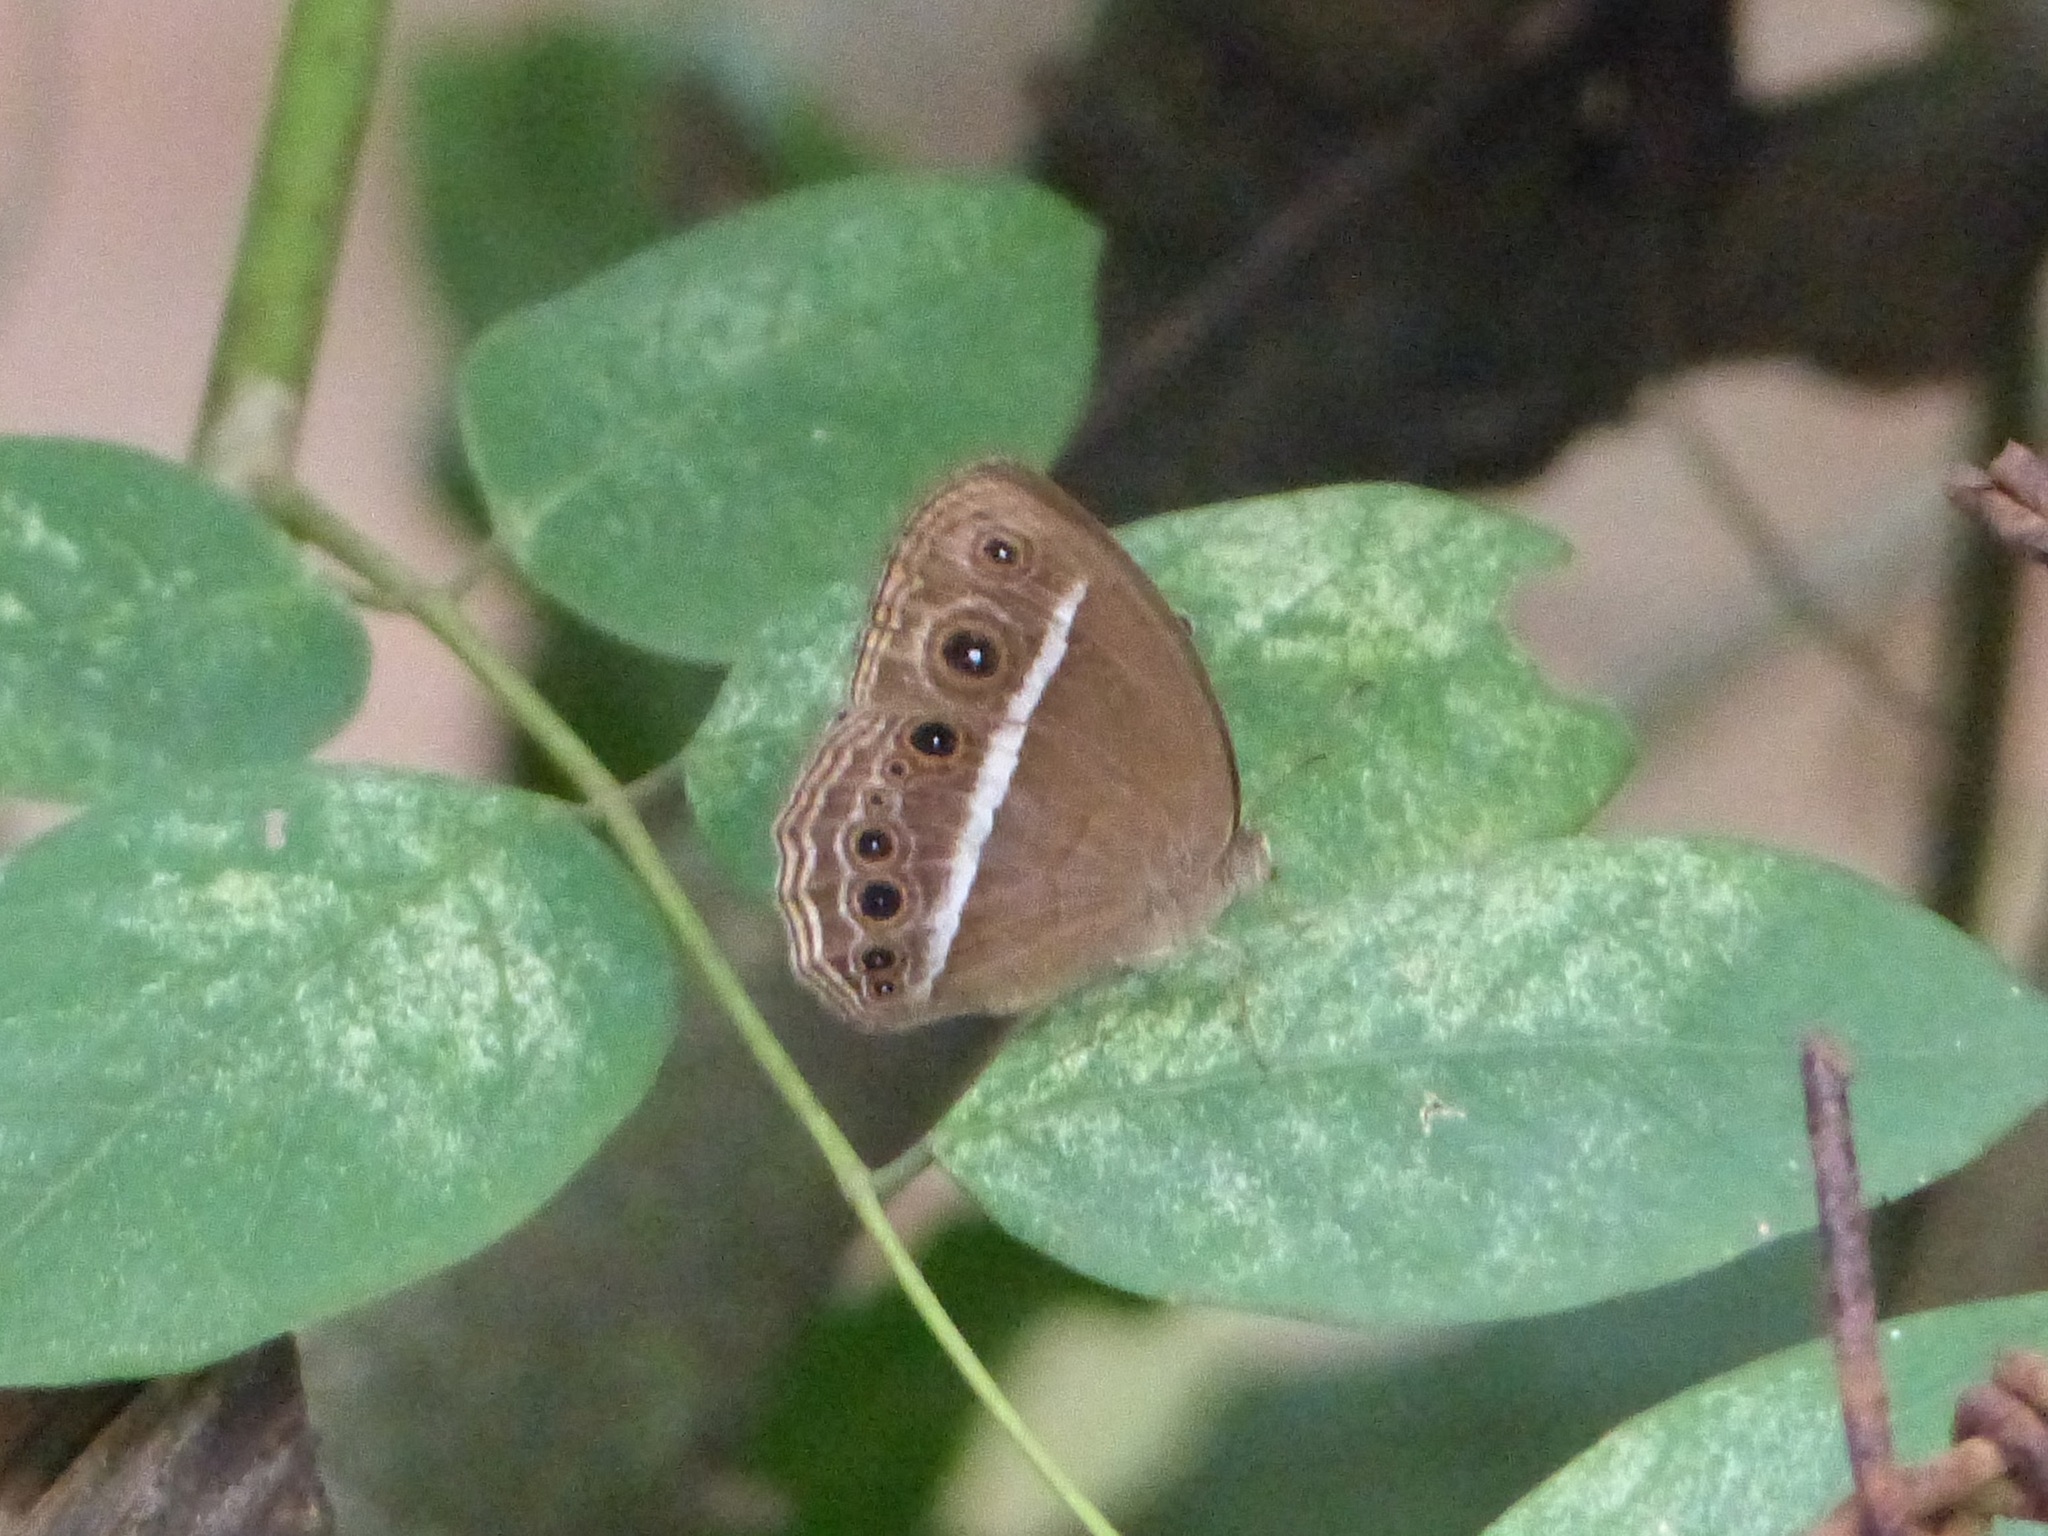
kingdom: Animalia
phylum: Arthropoda
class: Insecta
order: Lepidoptera
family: Nymphalidae
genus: Mycalesis
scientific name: Mycalesis mineus
